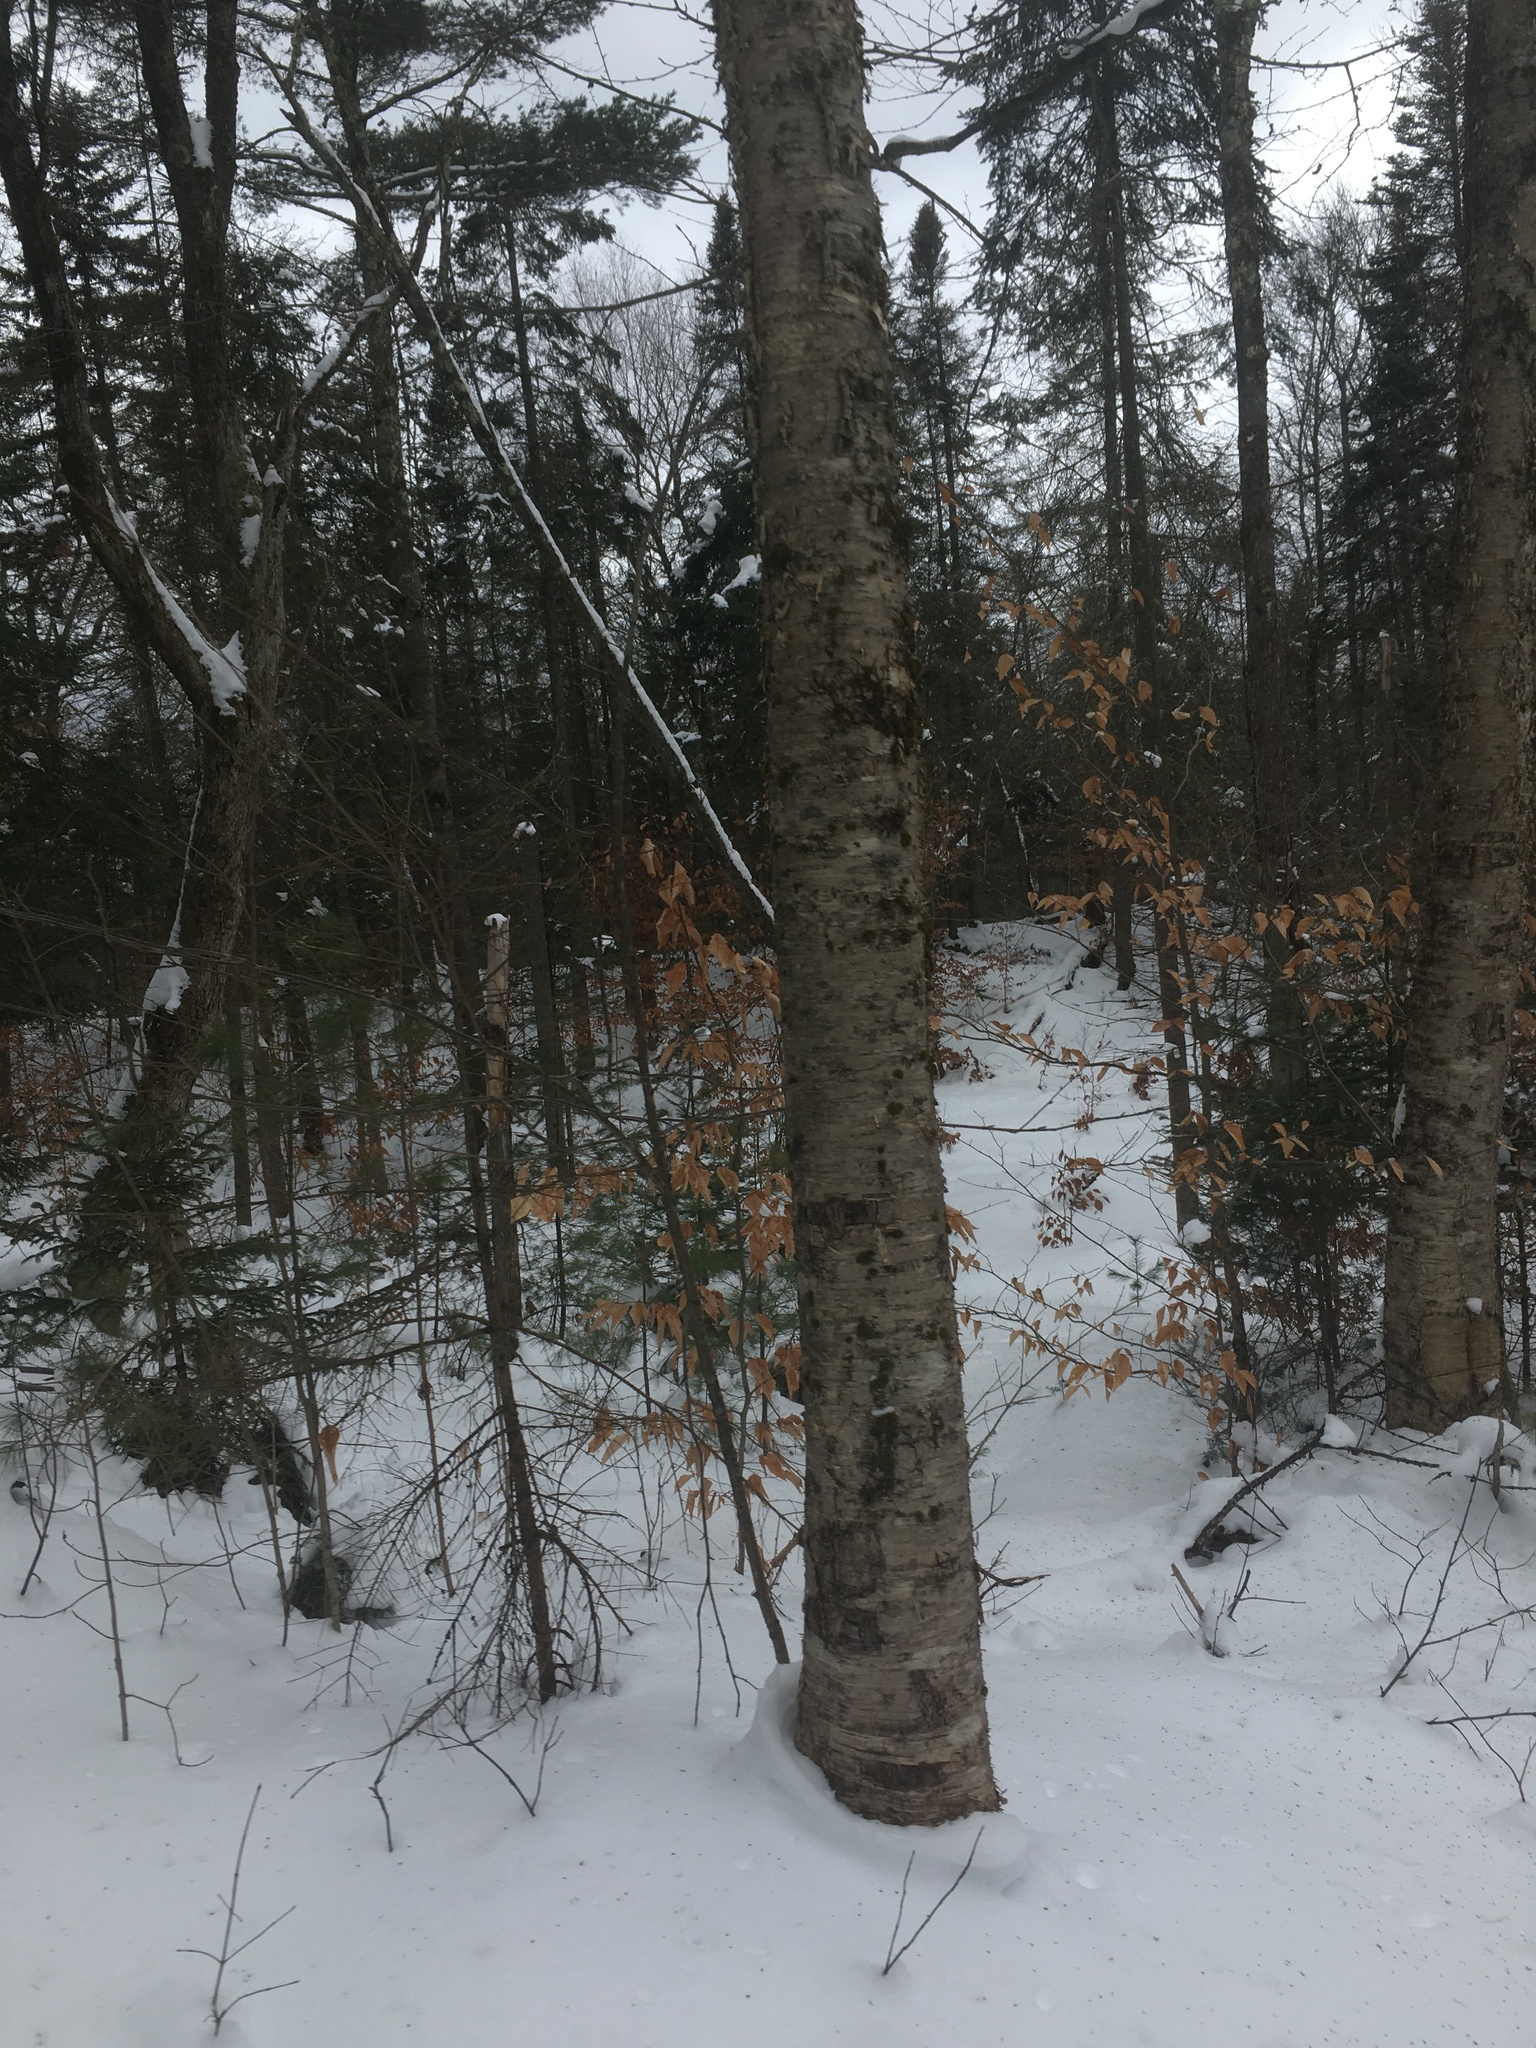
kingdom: Plantae
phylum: Tracheophyta
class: Magnoliopsida
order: Fagales
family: Betulaceae
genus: Betula
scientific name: Betula alleghaniensis
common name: Yellow birch
